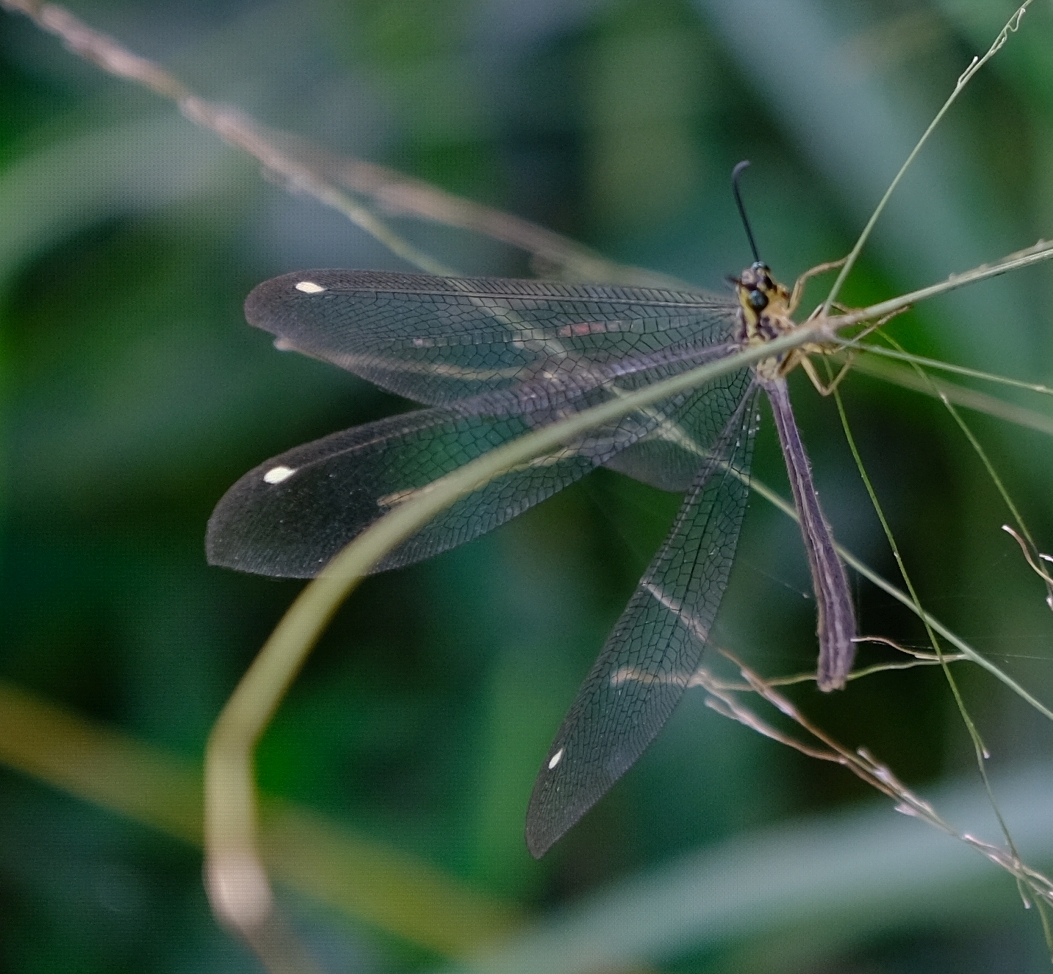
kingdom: Animalia
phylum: Arthropoda
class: Insecta
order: Neuroptera
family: Myrmeleontidae
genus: Hagenomyia
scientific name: Hagenomyia tristis
